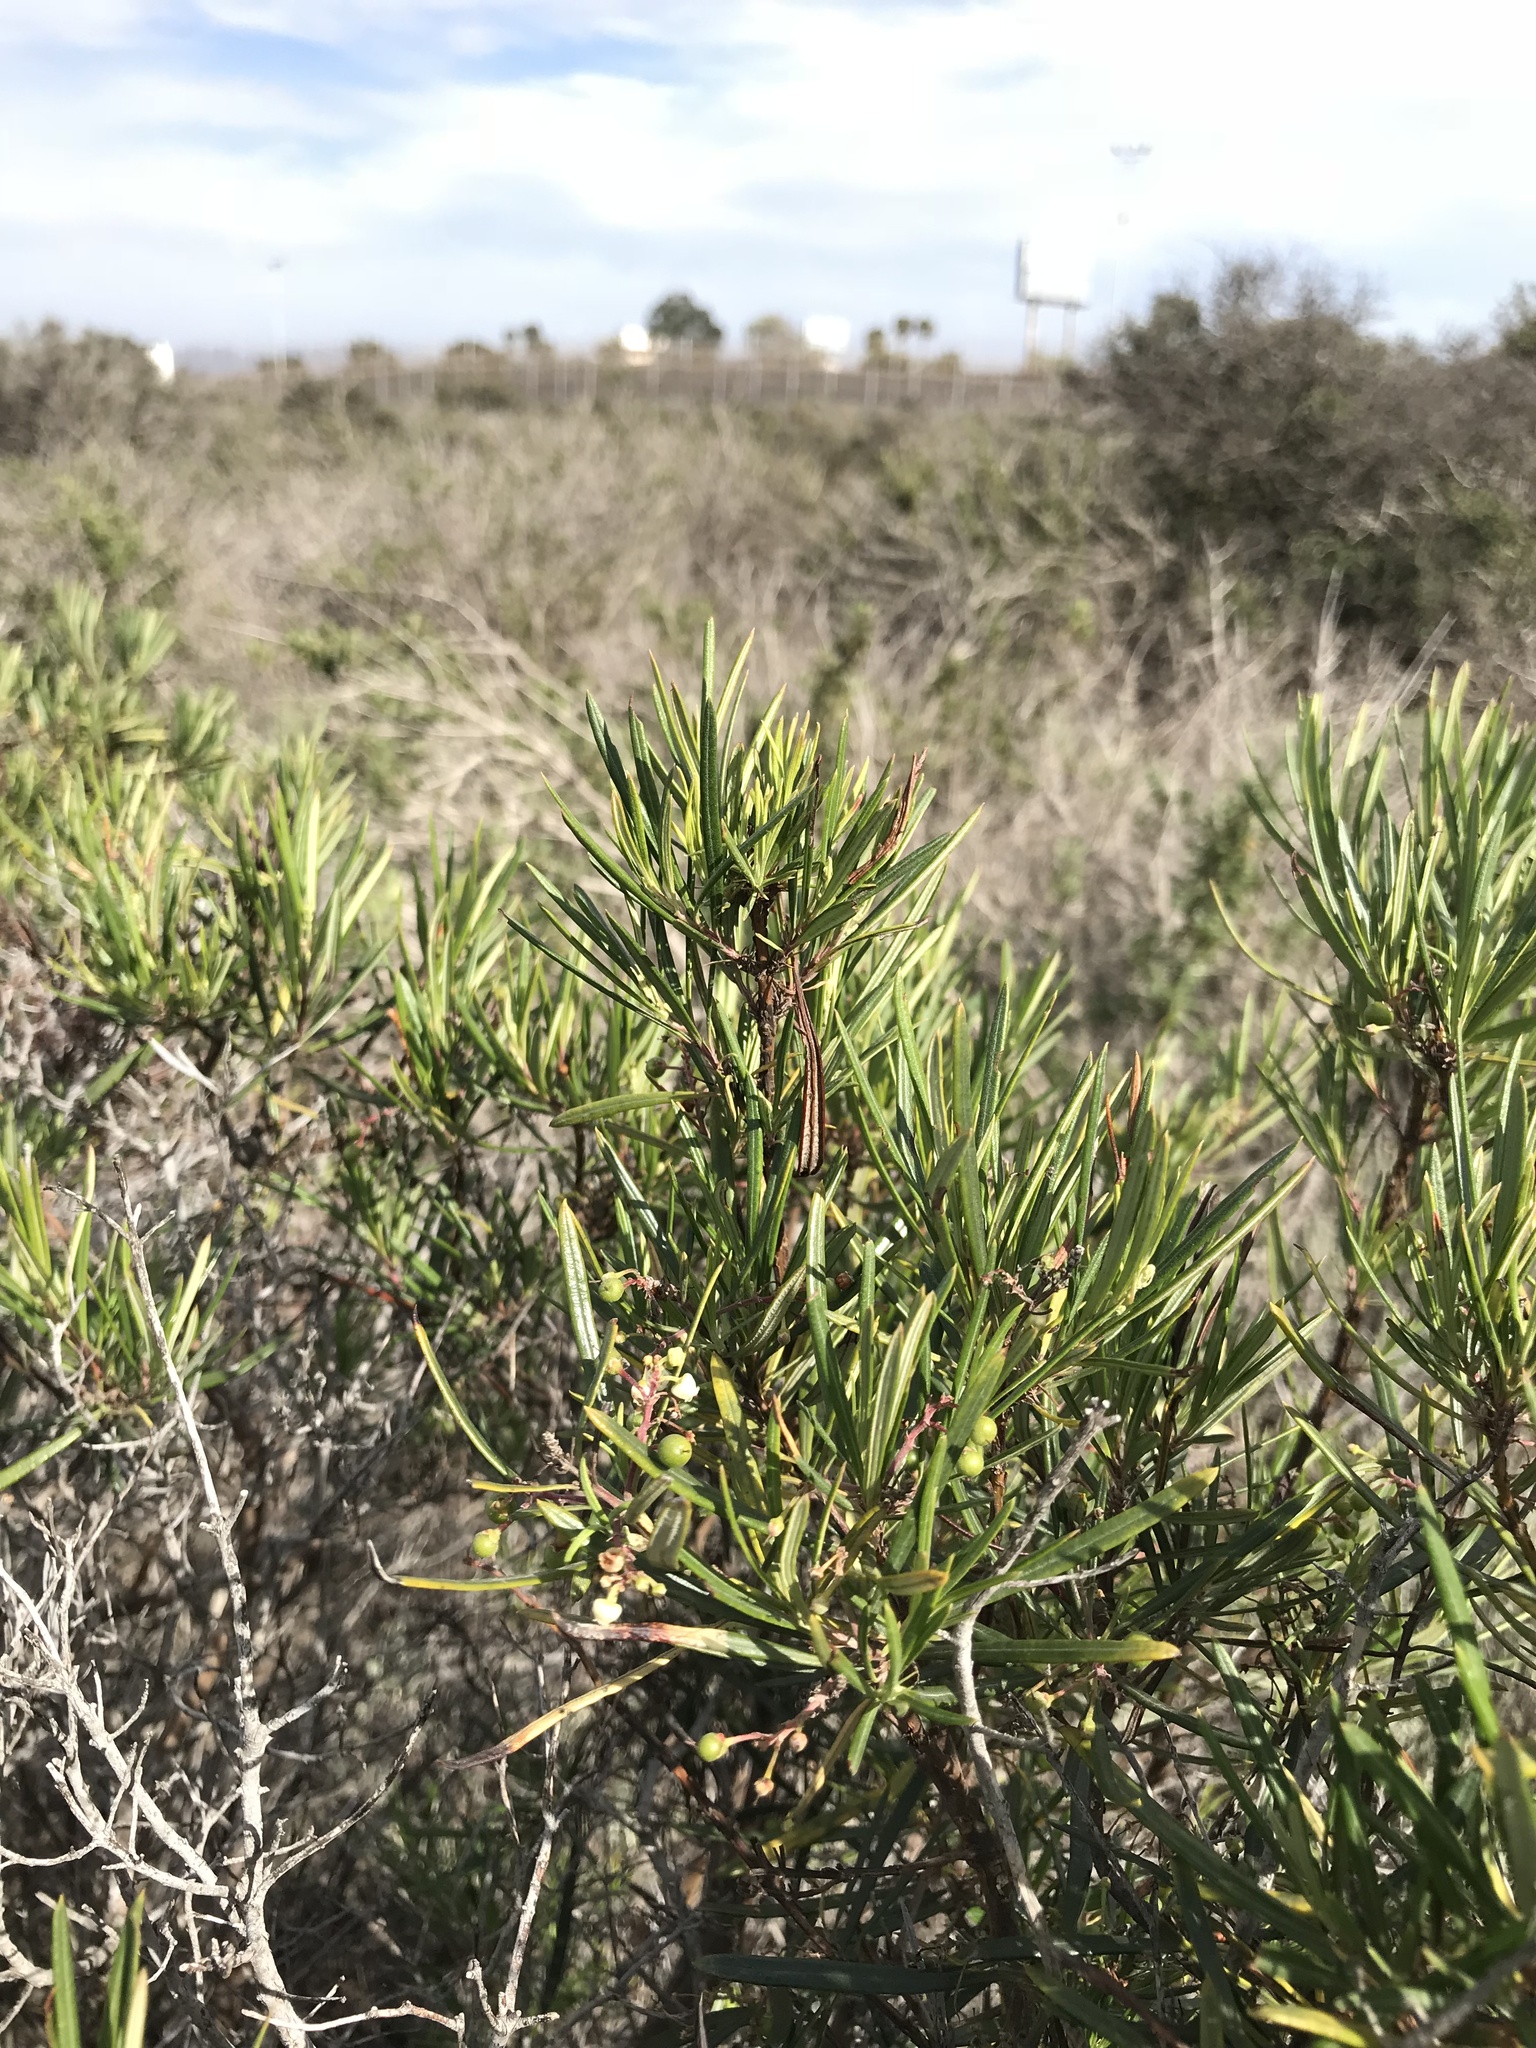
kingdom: Plantae
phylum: Tracheophyta
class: Magnoliopsida
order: Ericales
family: Ericaceae
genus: Ornithostaphylos
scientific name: Ornithostaphylos oppositifolia
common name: Baja california birdbush
